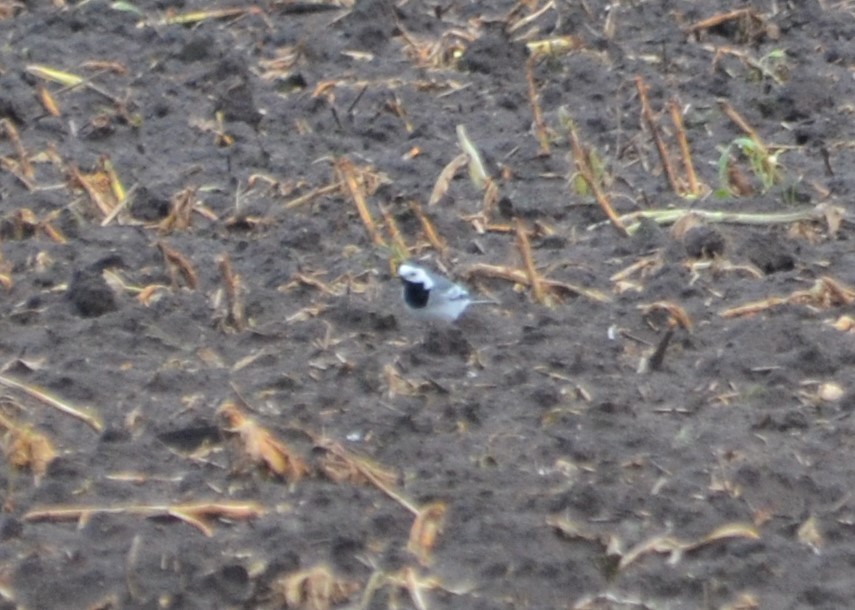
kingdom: Animalia
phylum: Chordata
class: Aves
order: Passeriformes
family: Motacillidae
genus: Motacilla
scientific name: Motacilla alba
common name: White wagtail
